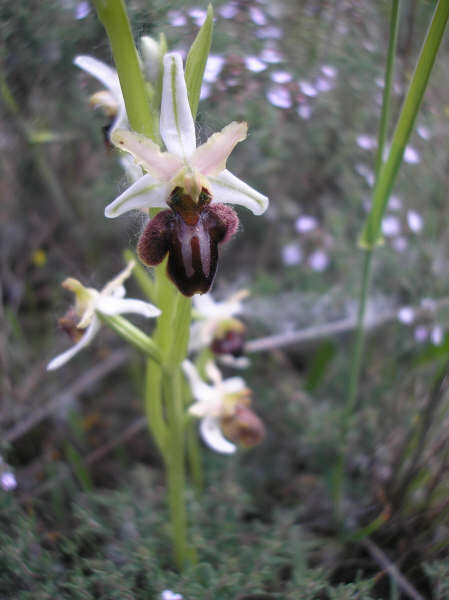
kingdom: Plantae
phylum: Tracheophyta
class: Liliopsida
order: Asparagales
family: Orchidaceae
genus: Ophrys
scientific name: Ophrys sphegodes
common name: Early spider-orchid
